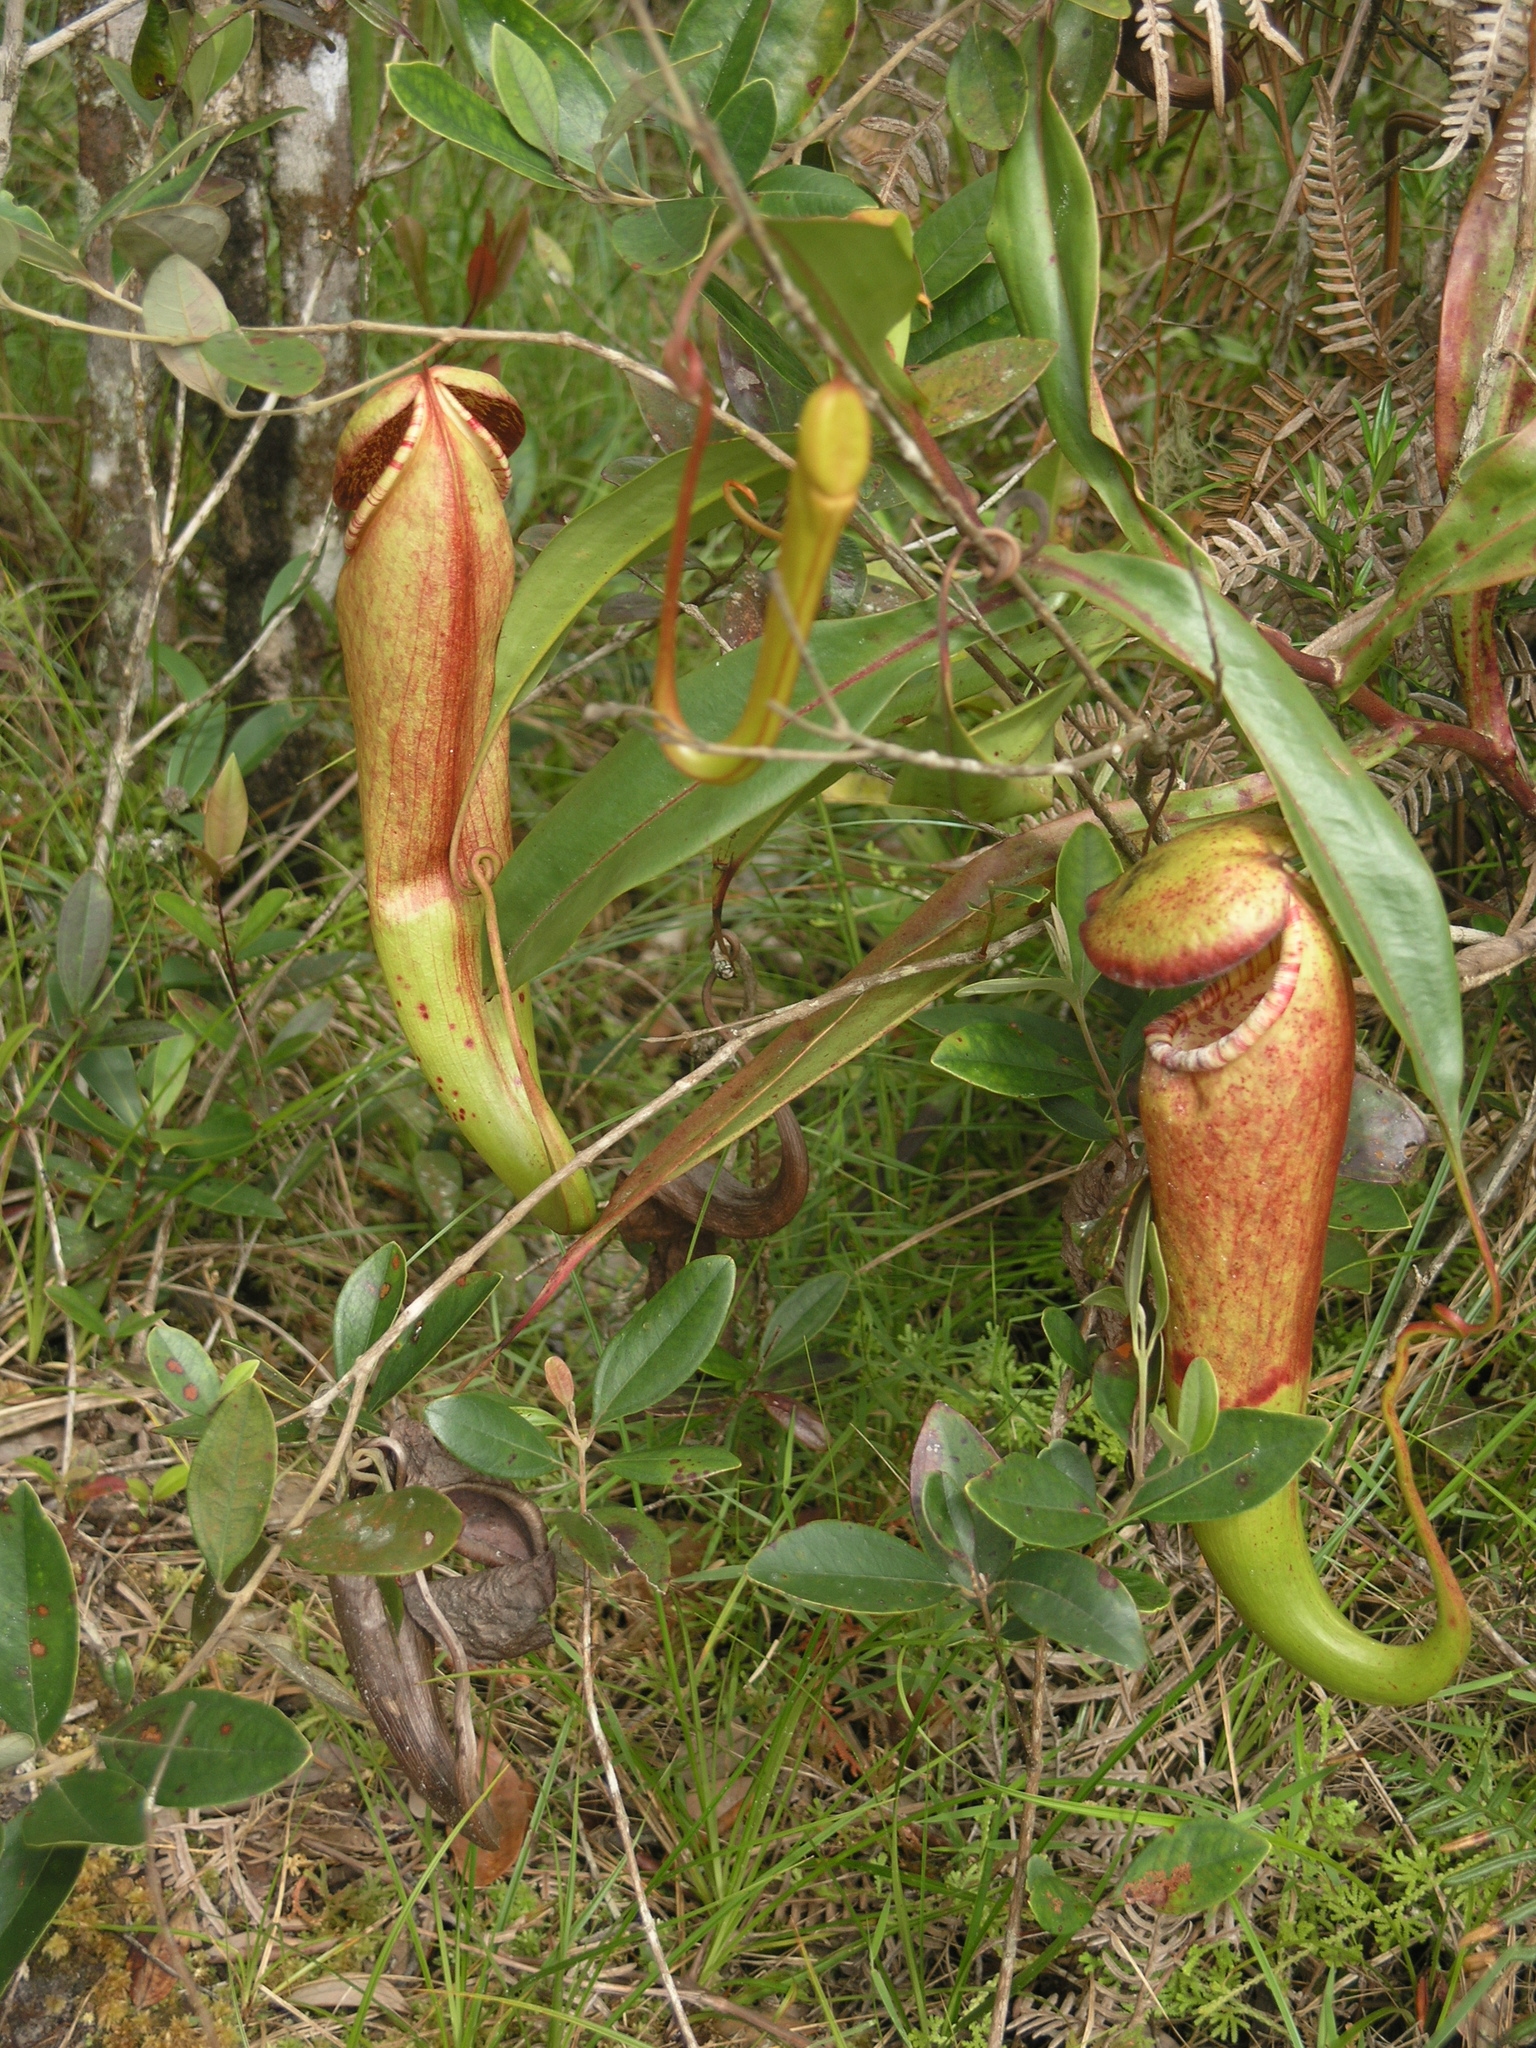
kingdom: Plantae
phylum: Tracheophyta
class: Magnoliopsida
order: Caryophyllales
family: Nepenthaceae
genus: Nepenthes
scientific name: Nepenthes bokorensis
